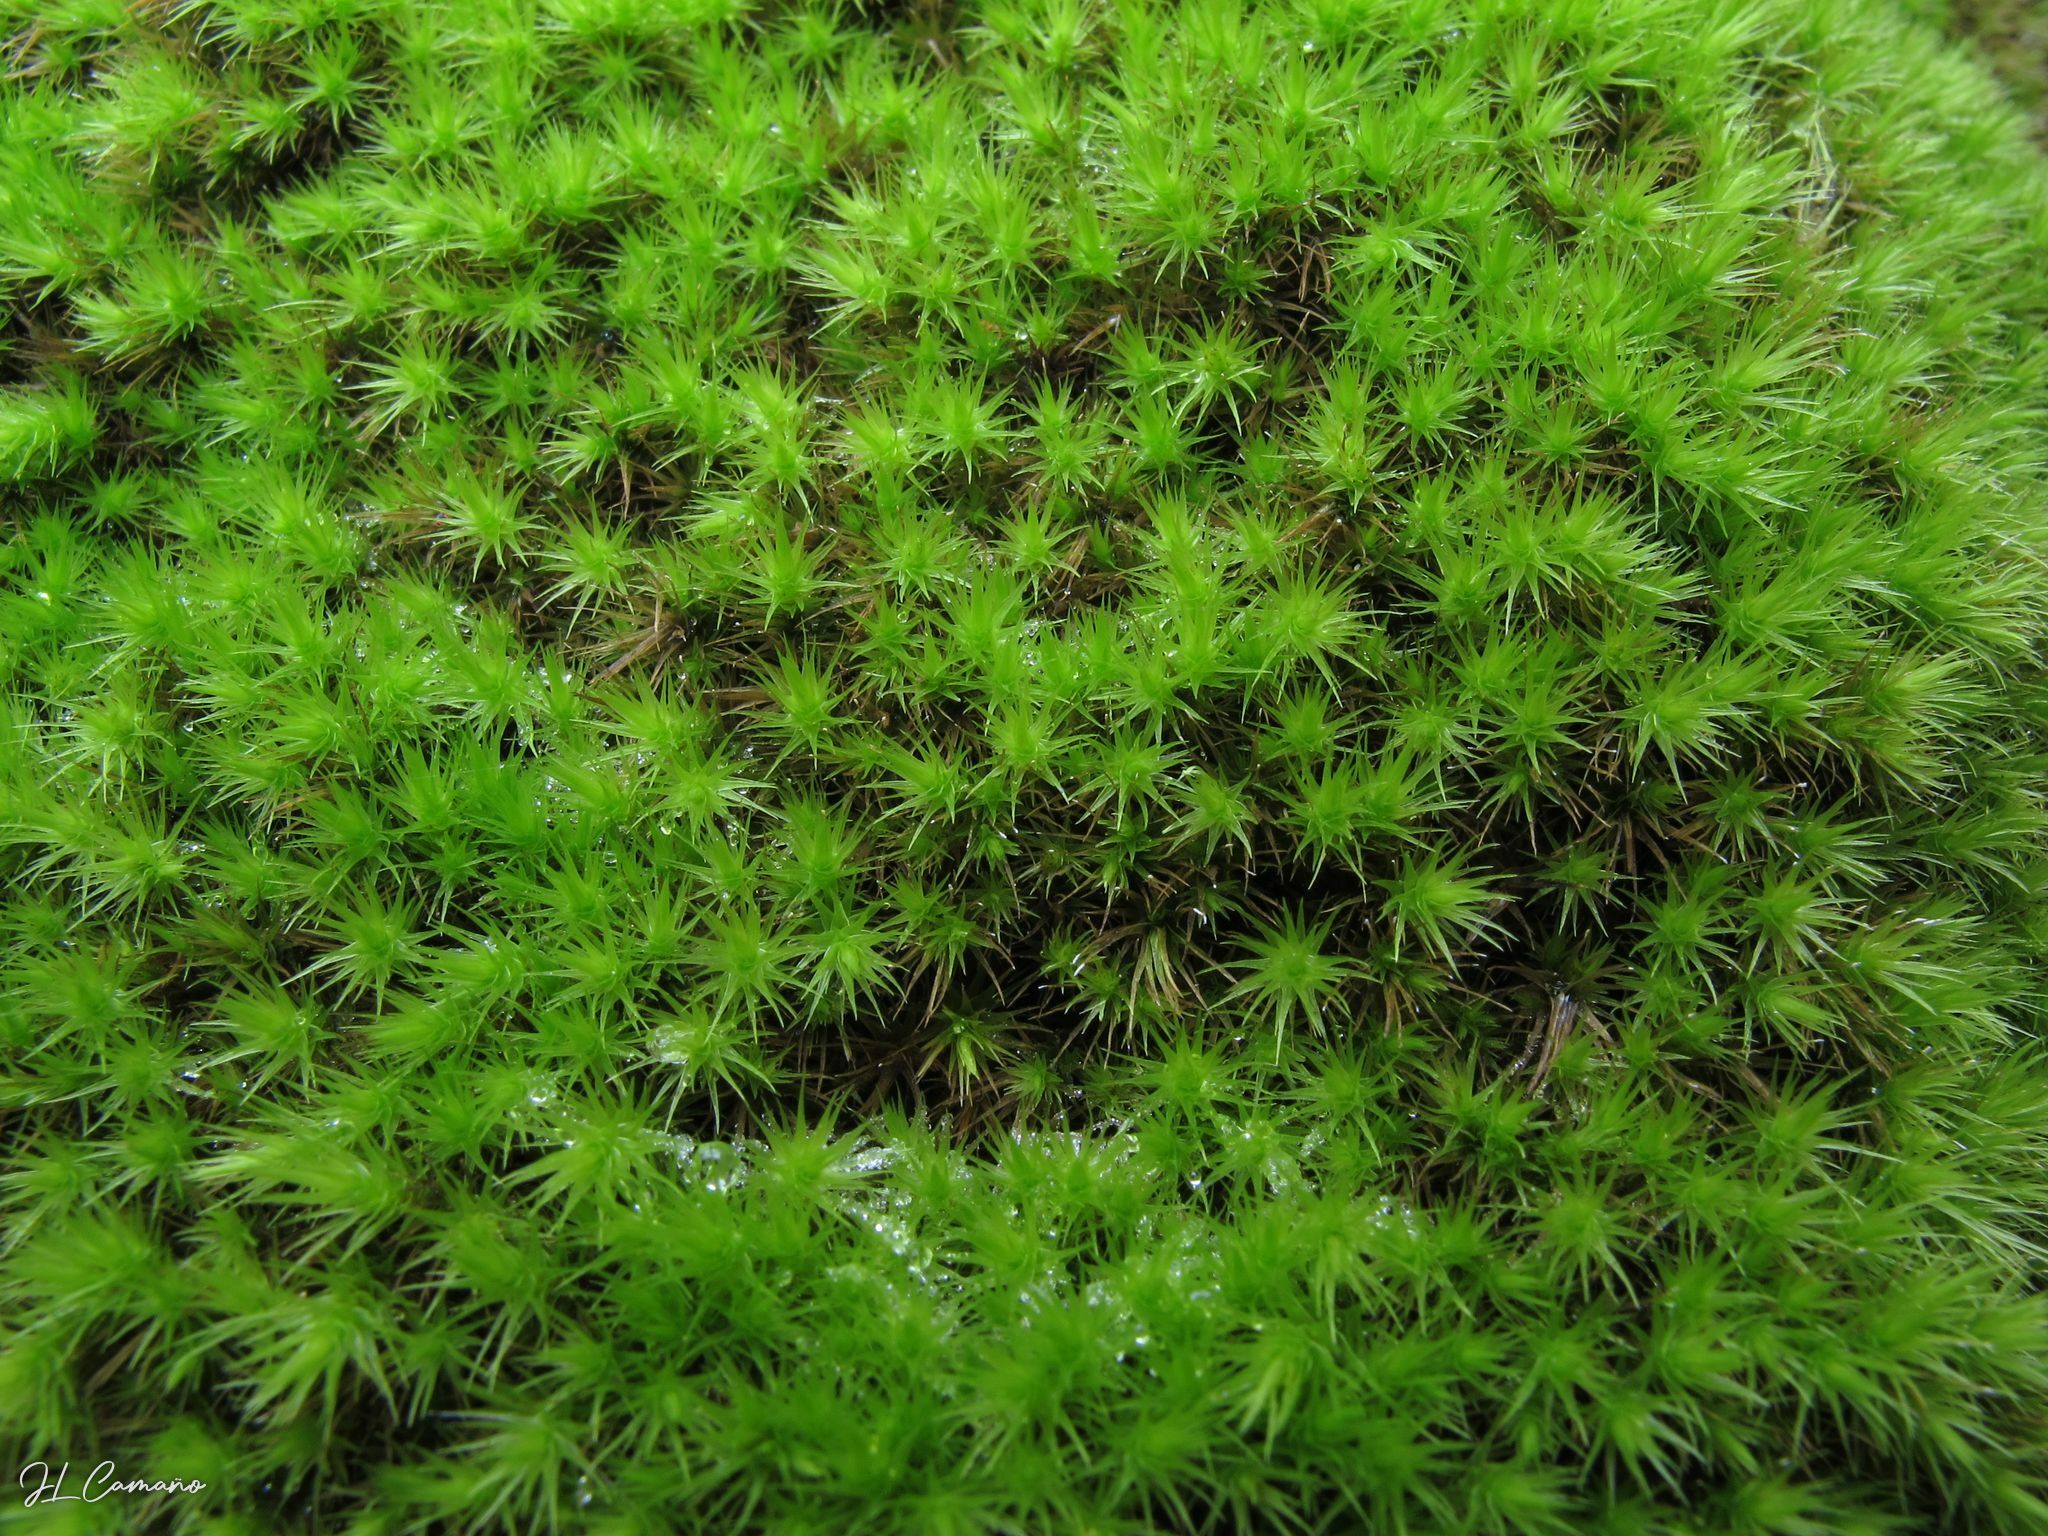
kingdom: Plantae
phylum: Bryophyta
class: Bryopsida
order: Bartramiales
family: Bartramiaceae
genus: Anacolia
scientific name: Anacolia menziesii
